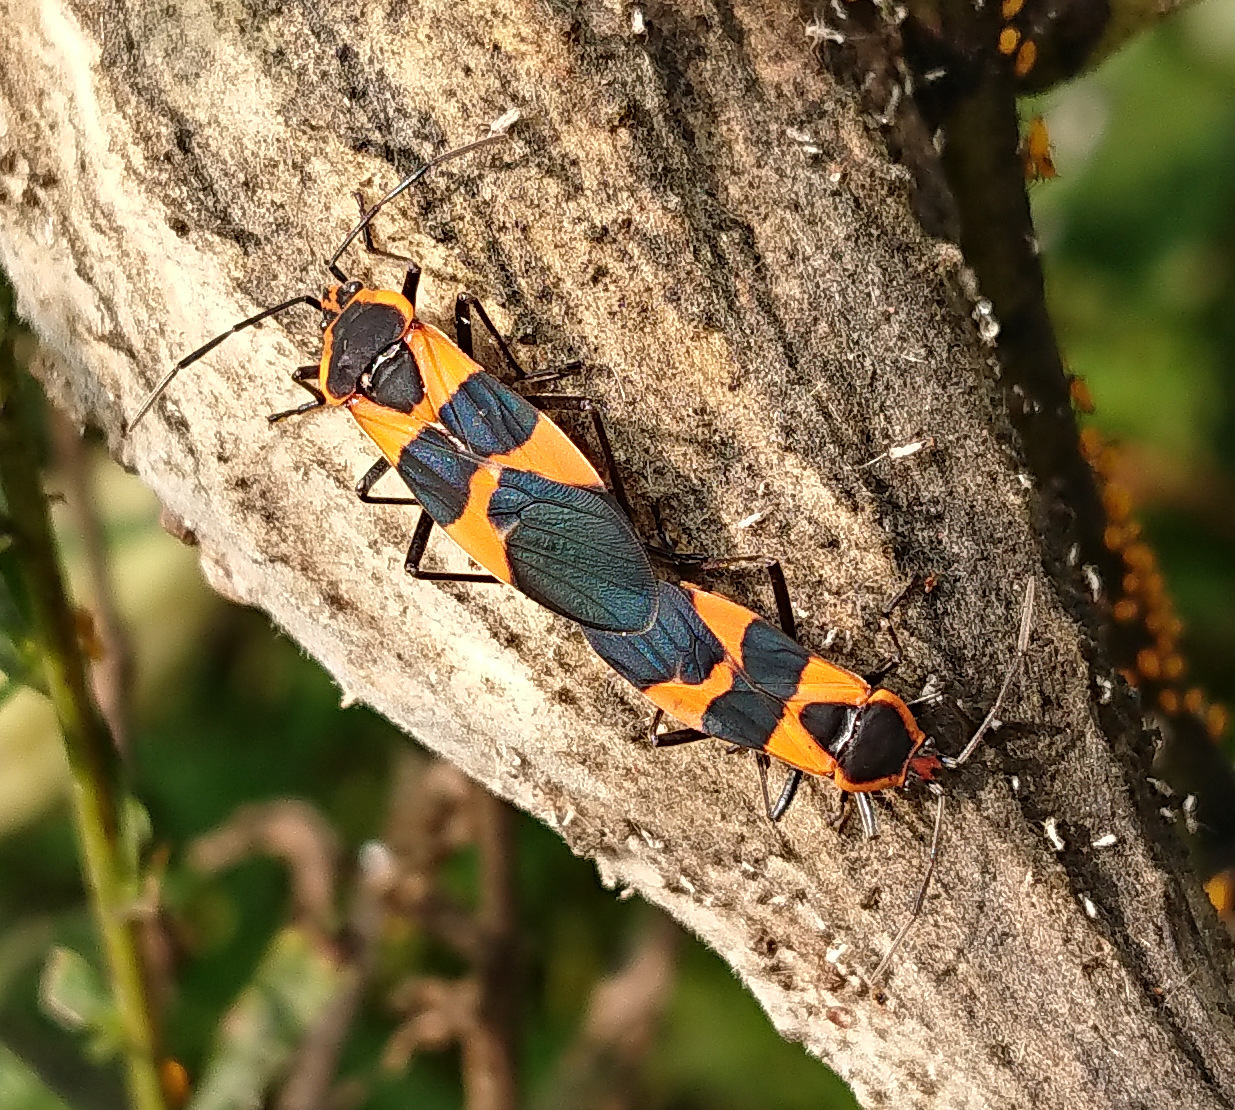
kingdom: Animalia
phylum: Arthropoda
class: Insecta
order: Hemiptera
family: Lygaeidae
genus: Oncopeltus
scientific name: Oncopeltus fasciatus
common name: Large milkweed bug
